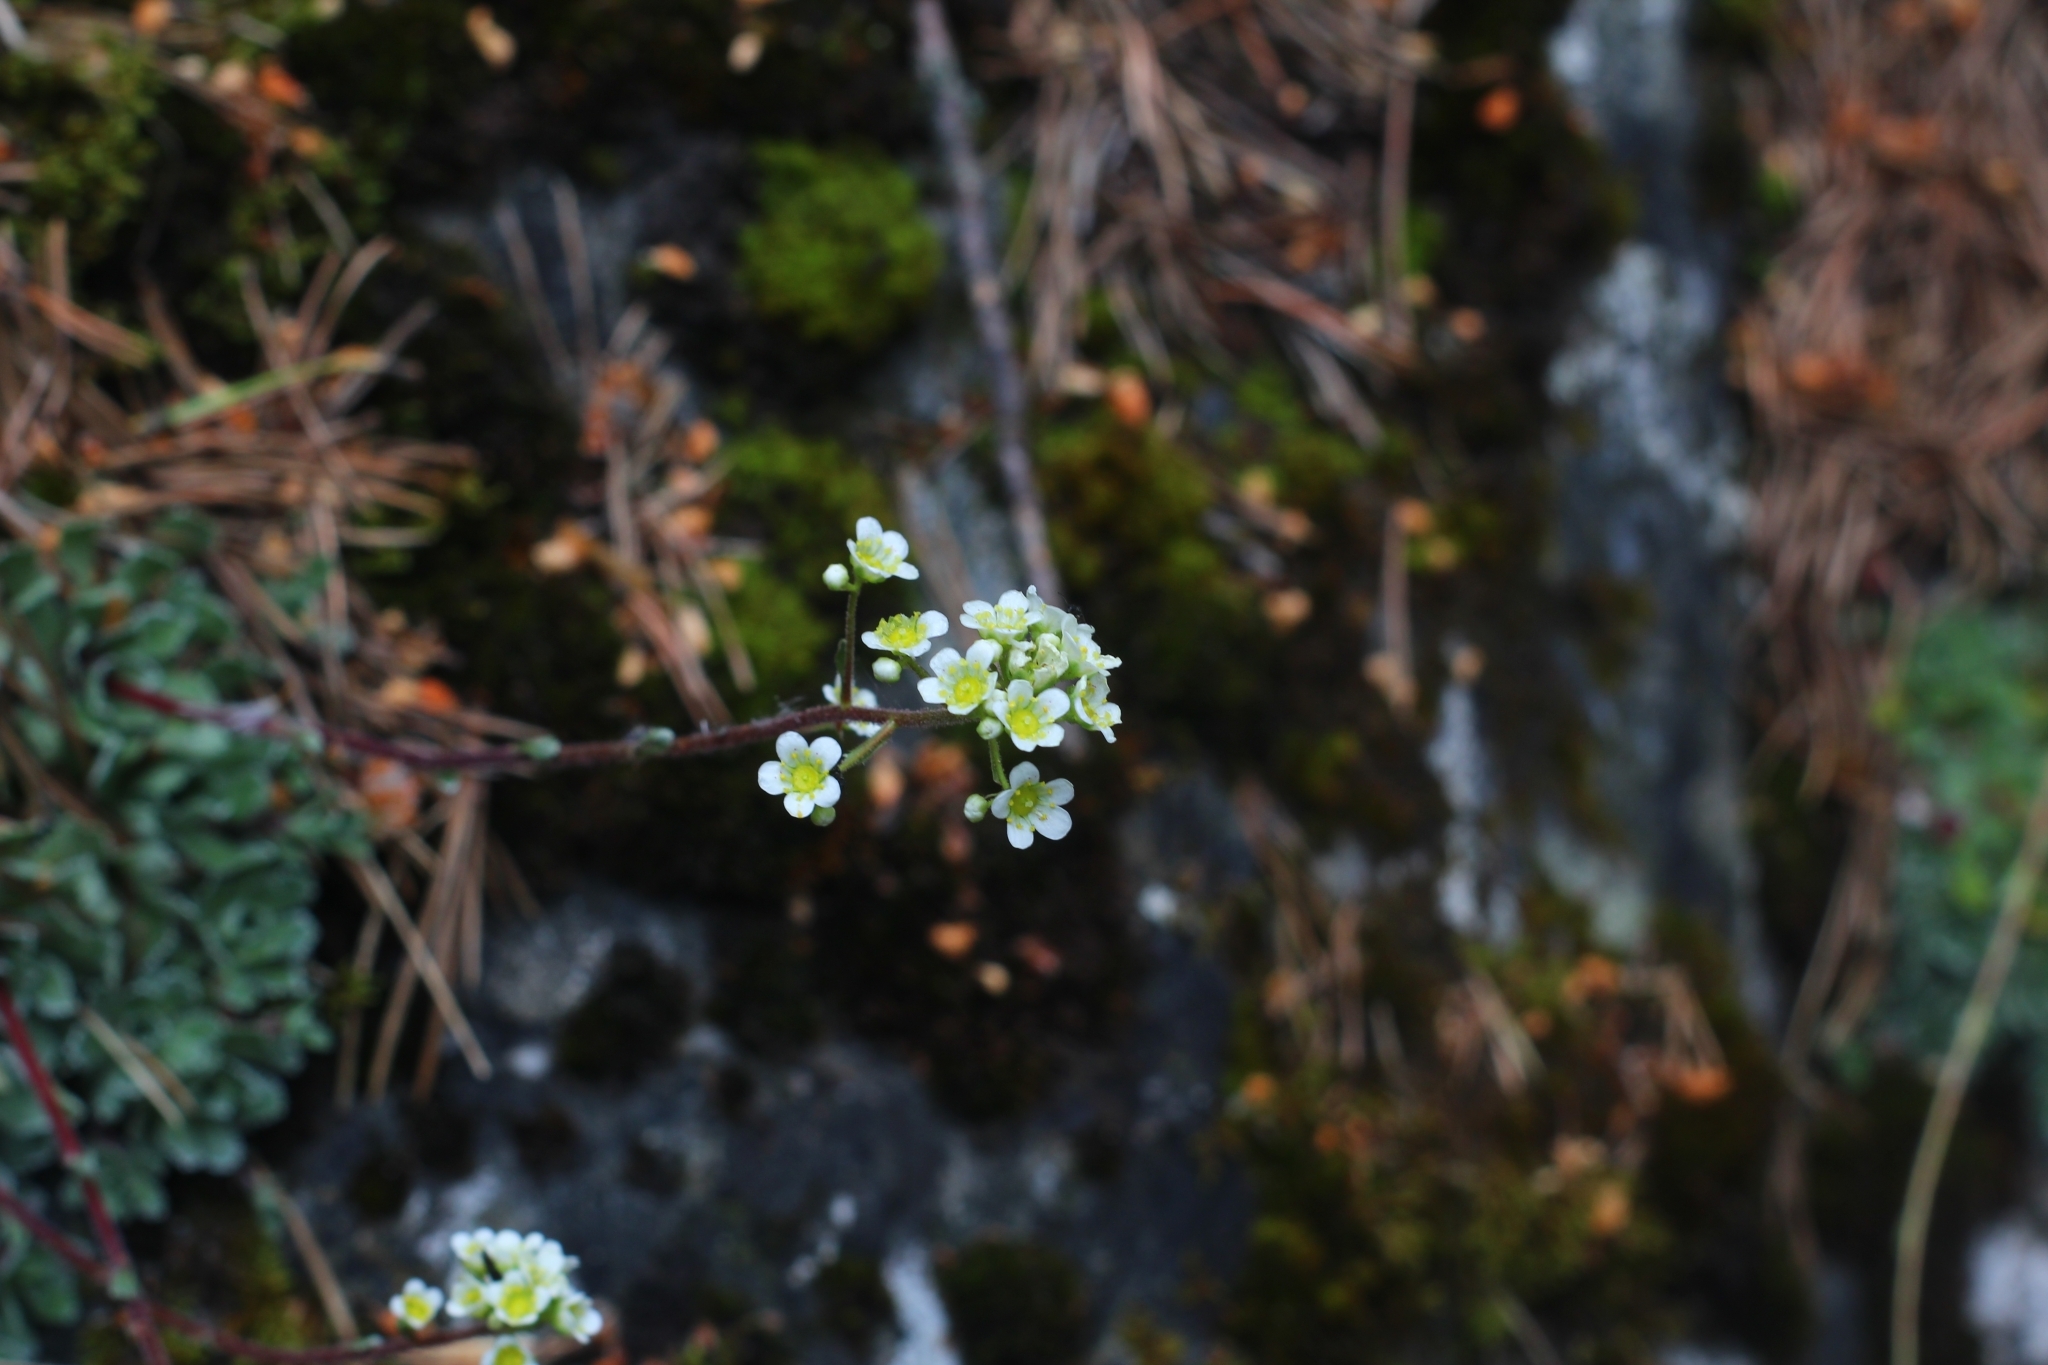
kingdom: Plantae
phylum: Tracheophyta
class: Magnoliopsida
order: Saxifragales
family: Saxifragaceae
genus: Saxifraga
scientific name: Saxifraga paniculata
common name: Livelong saxifrage
